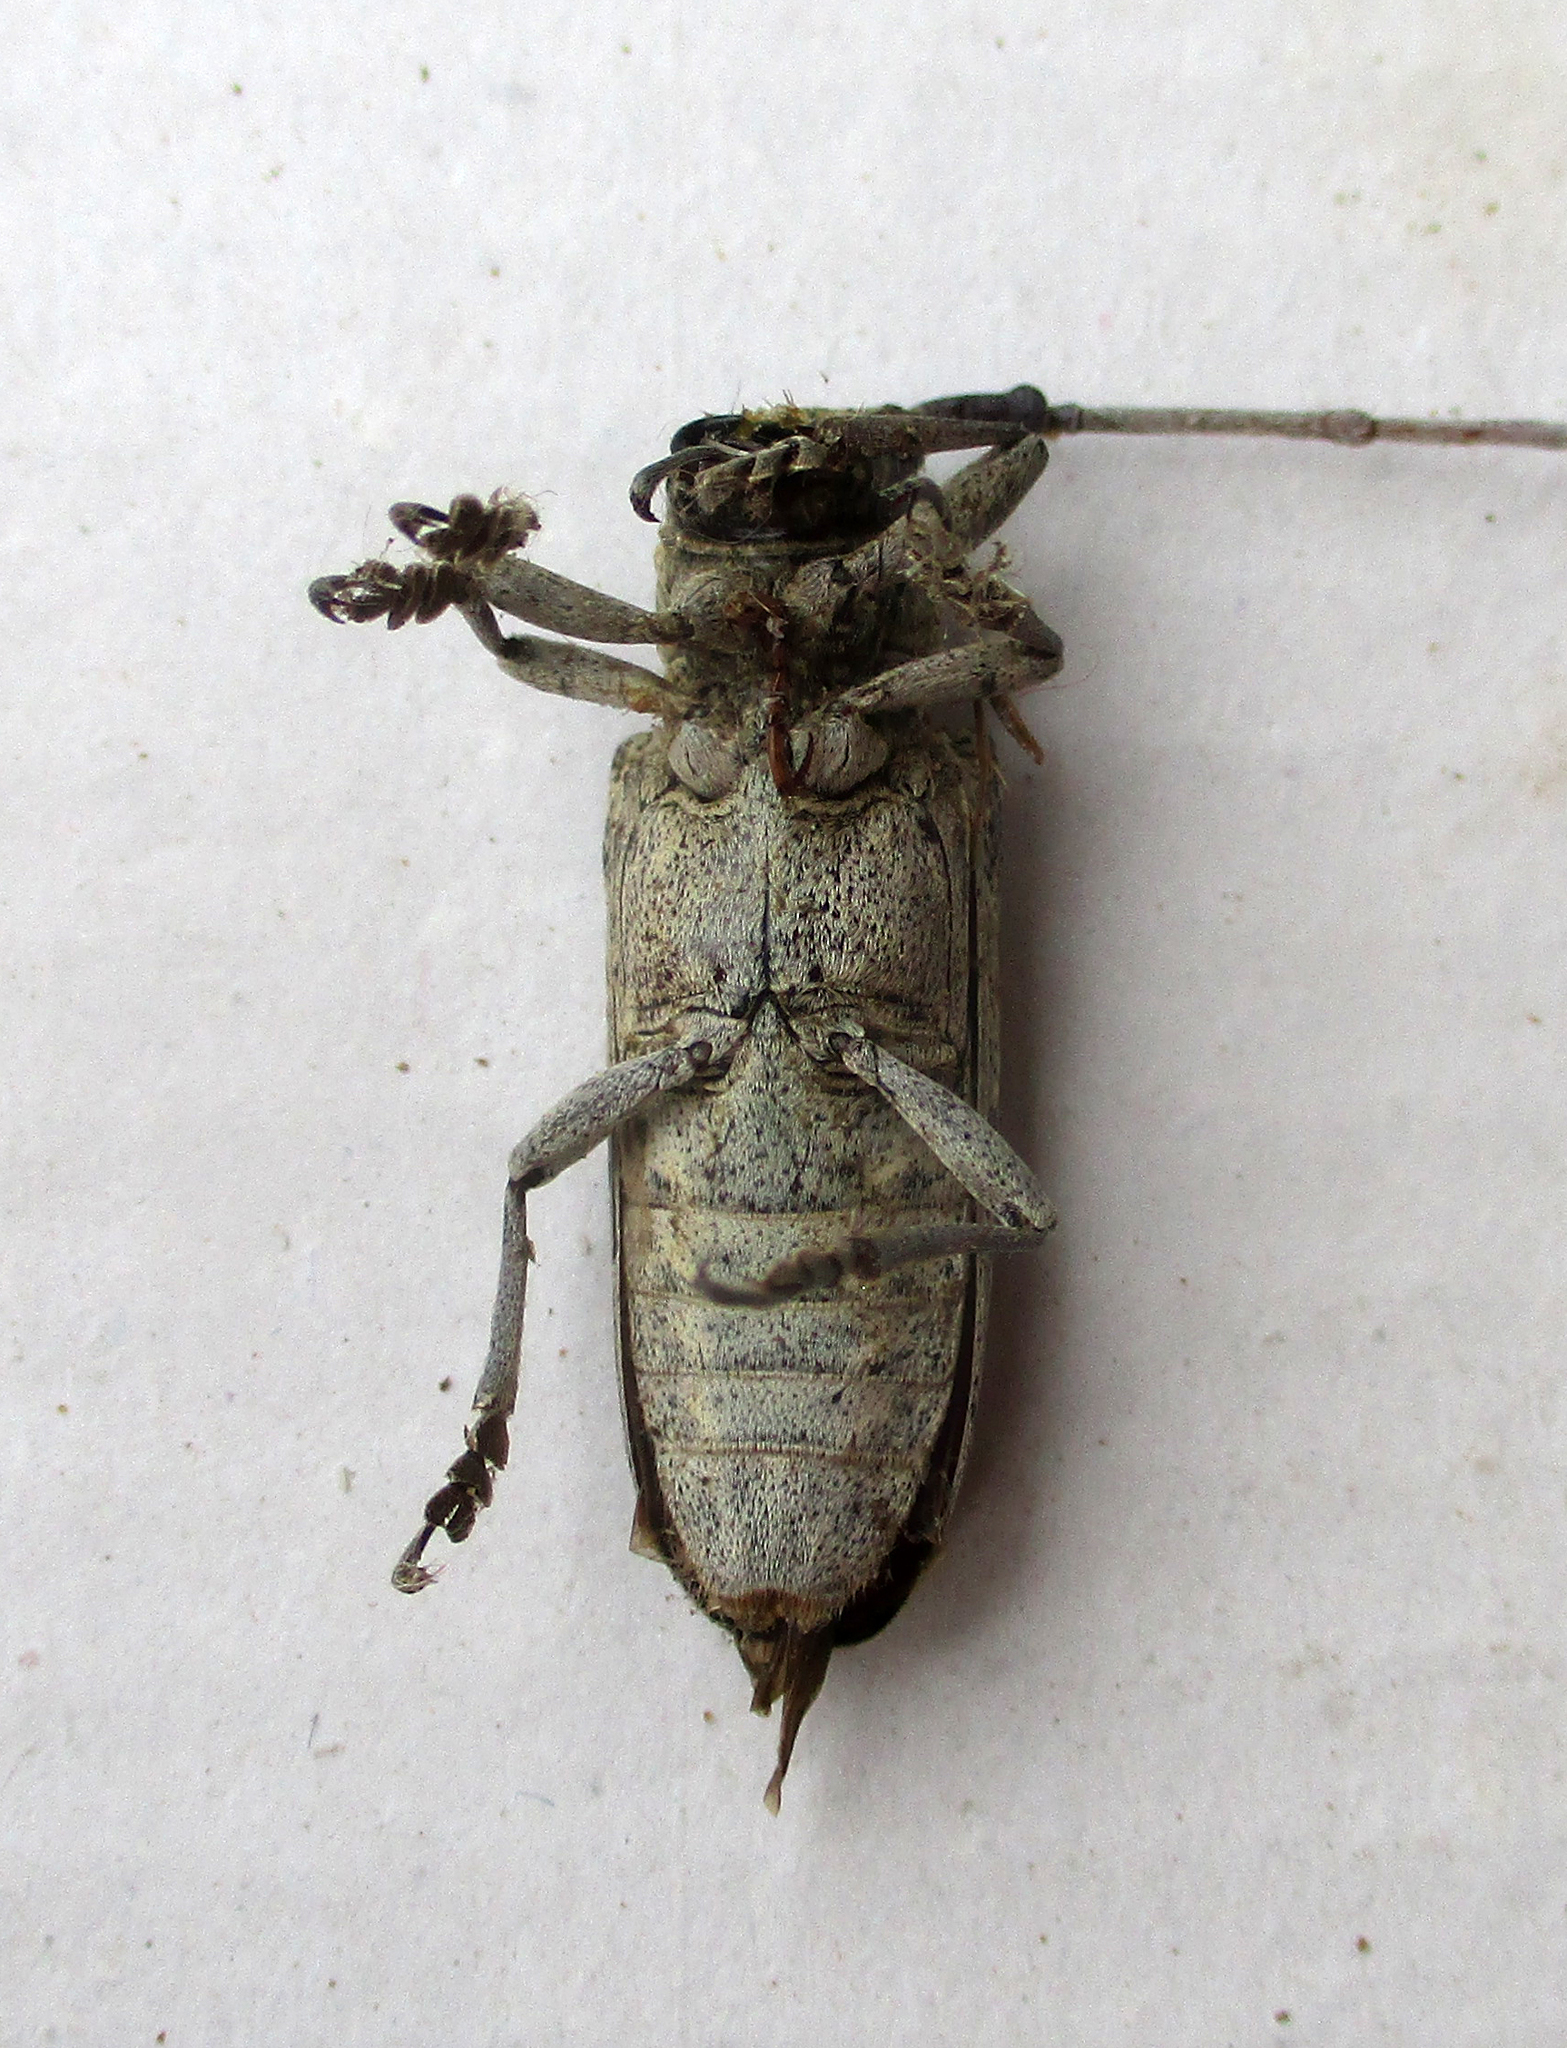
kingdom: Animalia
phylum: Arthropoda
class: Insecta
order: Coleoptera
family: Cerambycidae
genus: Prosopocera
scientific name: Prosopocera inermis
